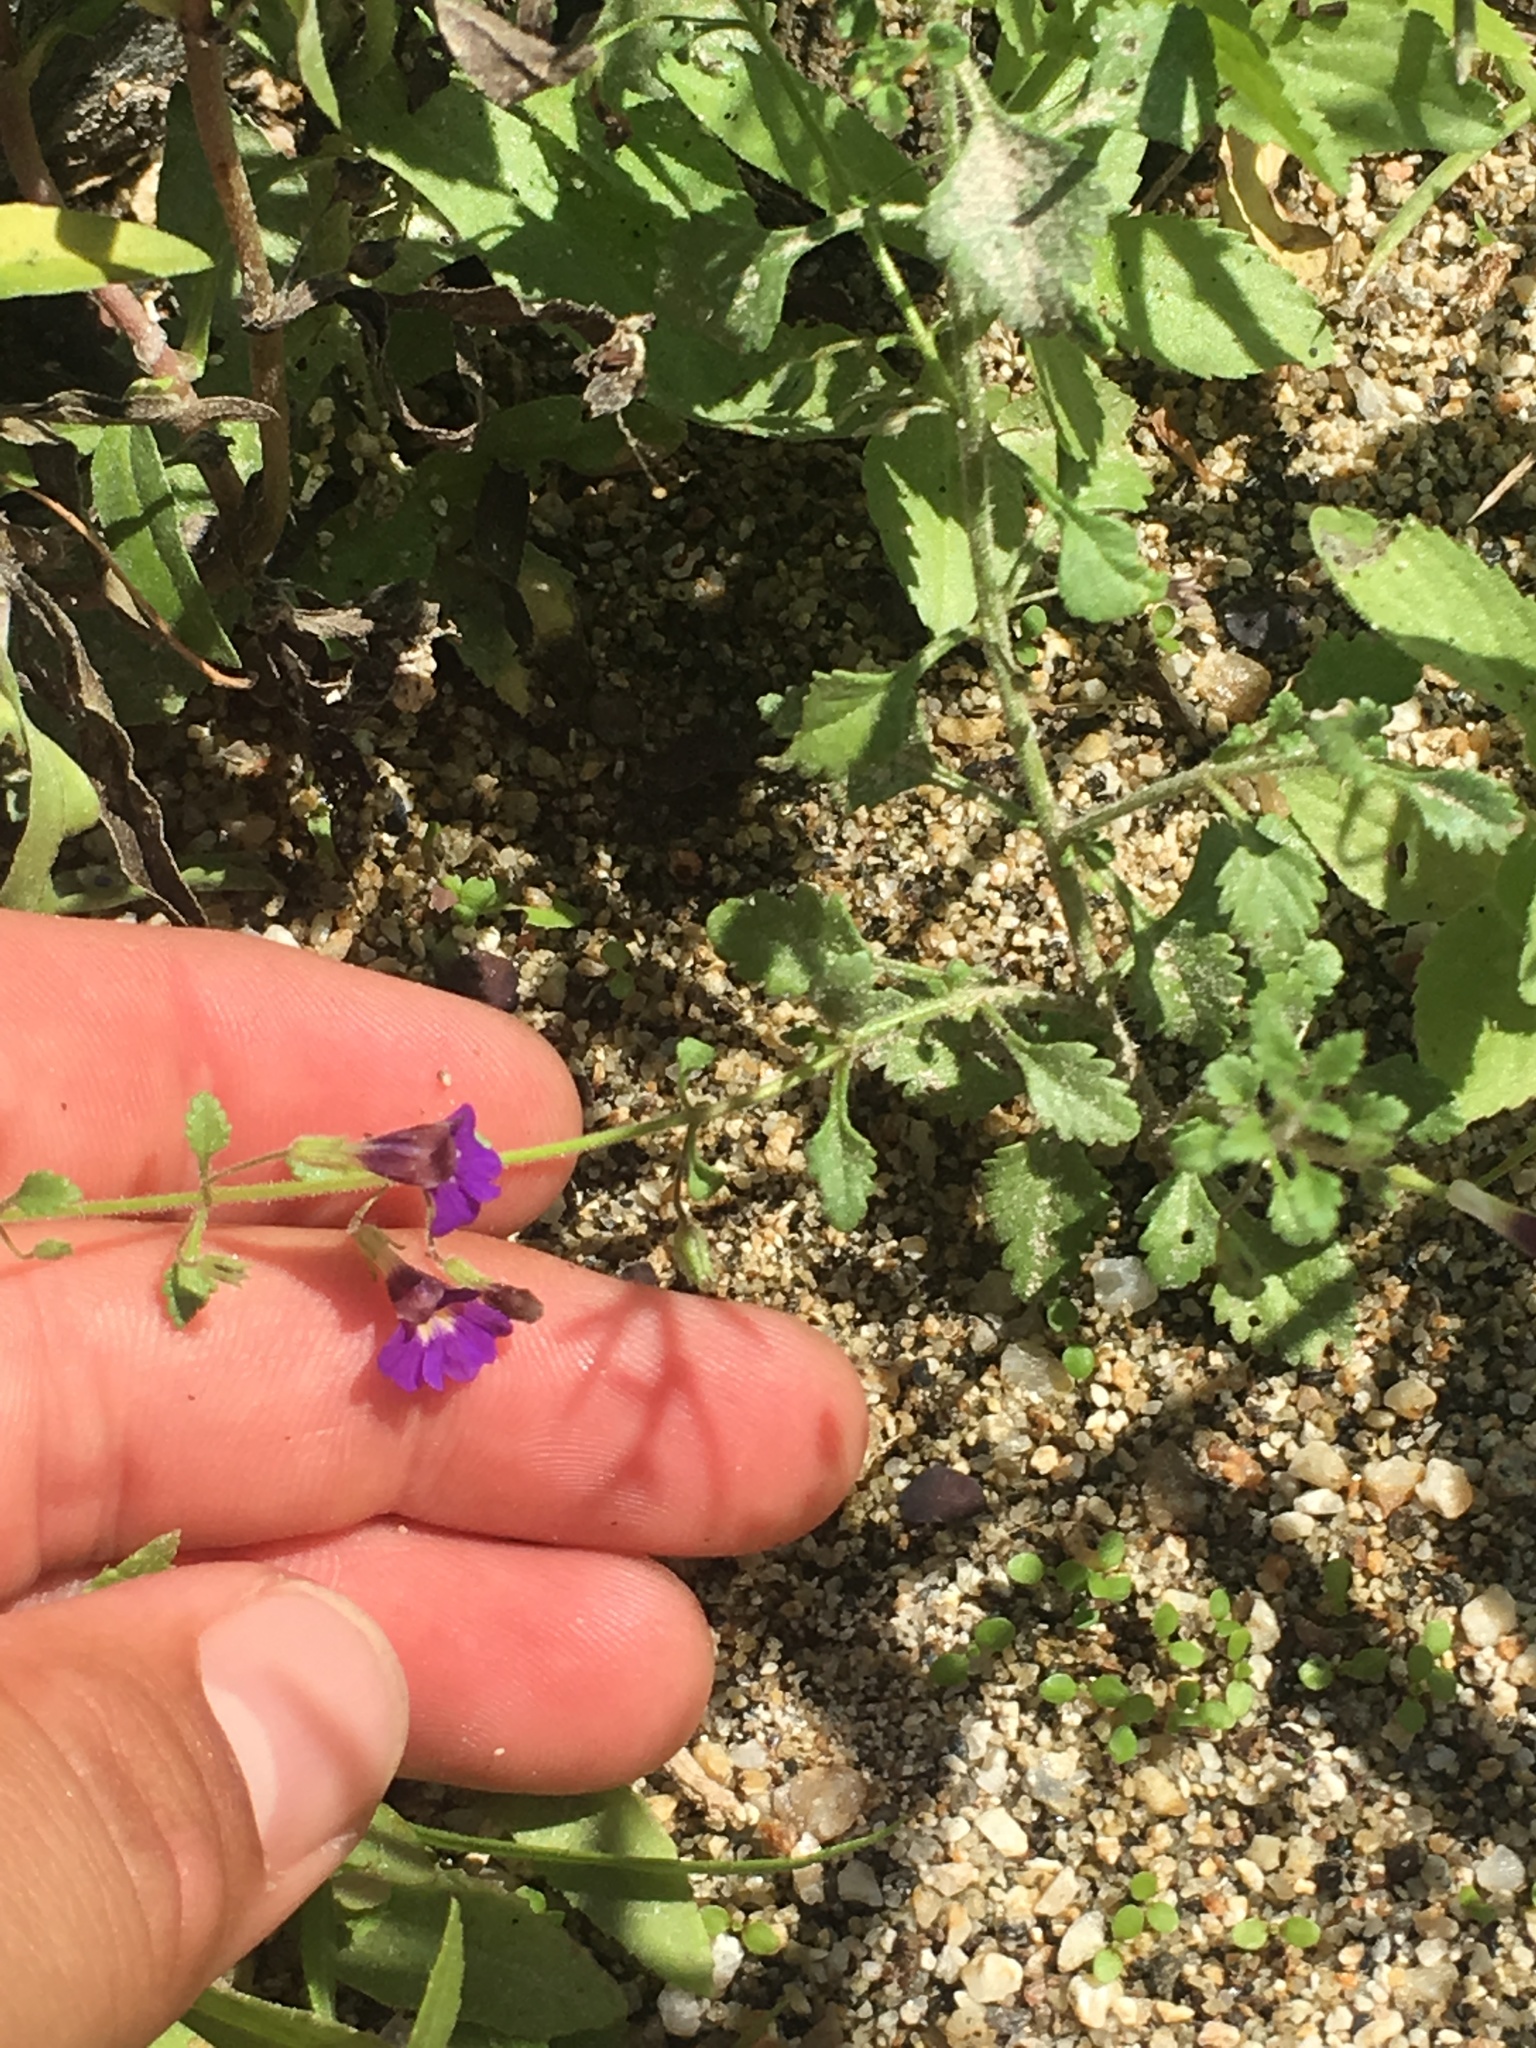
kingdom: Plantae
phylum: Tracheophyta
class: Magnoliopsida
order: Lamiales
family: Plantaginaceae
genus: Stemodia
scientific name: Stemodia pusilla
